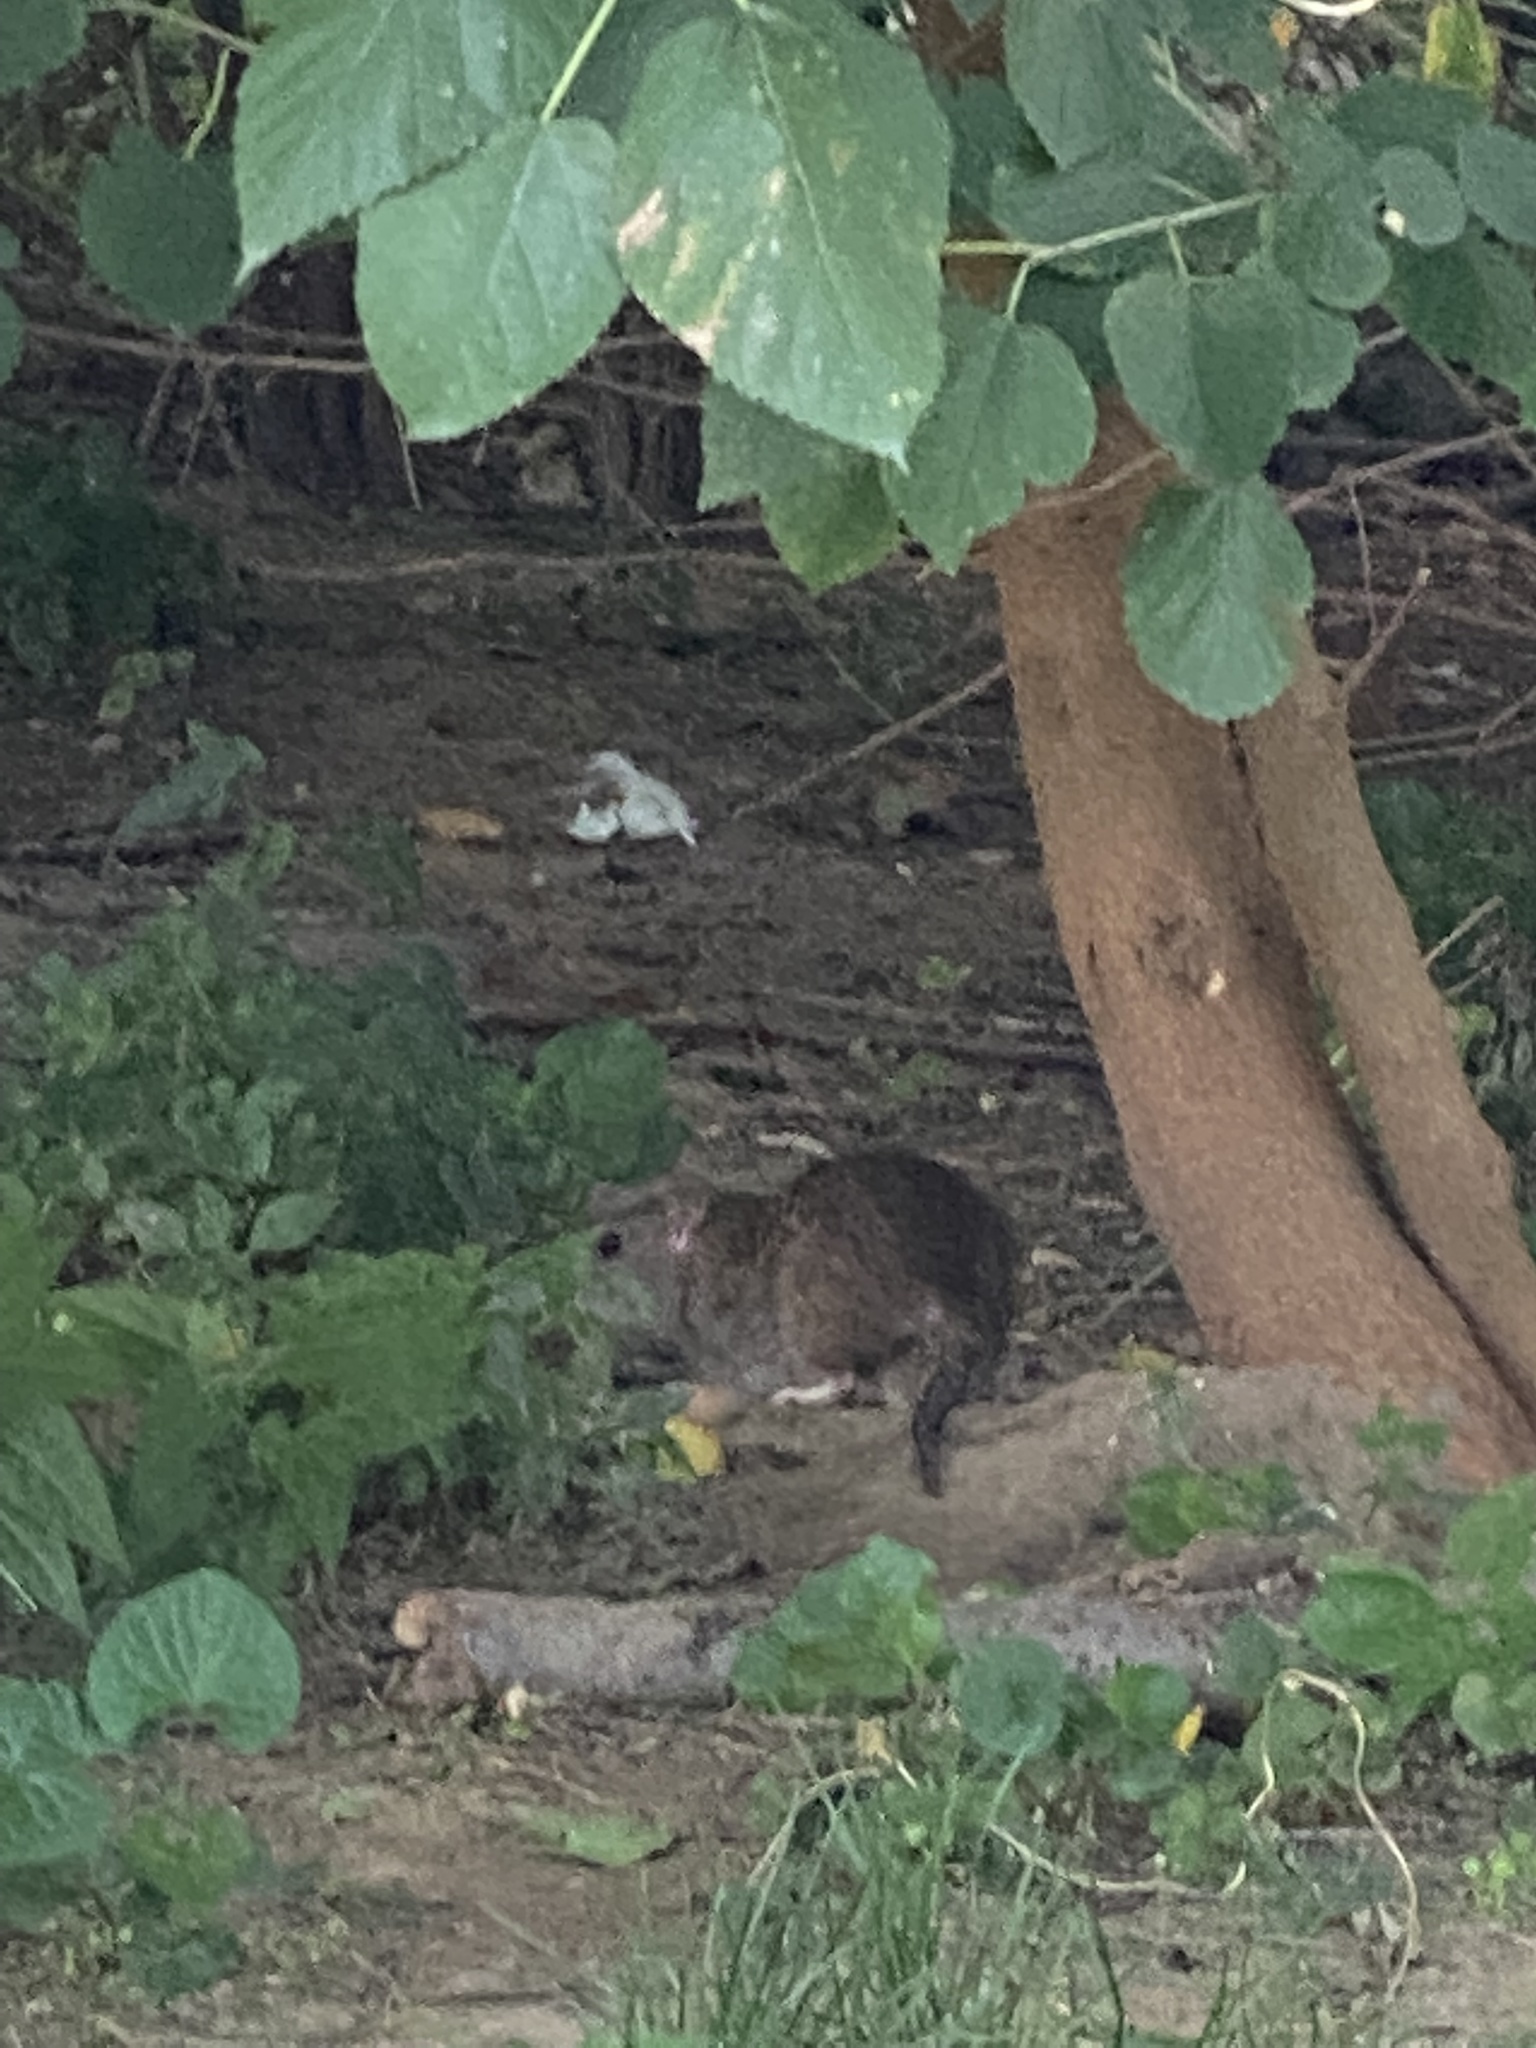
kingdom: Animalia
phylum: Chordata
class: Mammalia
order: Rodentia
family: Muridae
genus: Rattus
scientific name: Rattus norvegicus
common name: Brown rat
